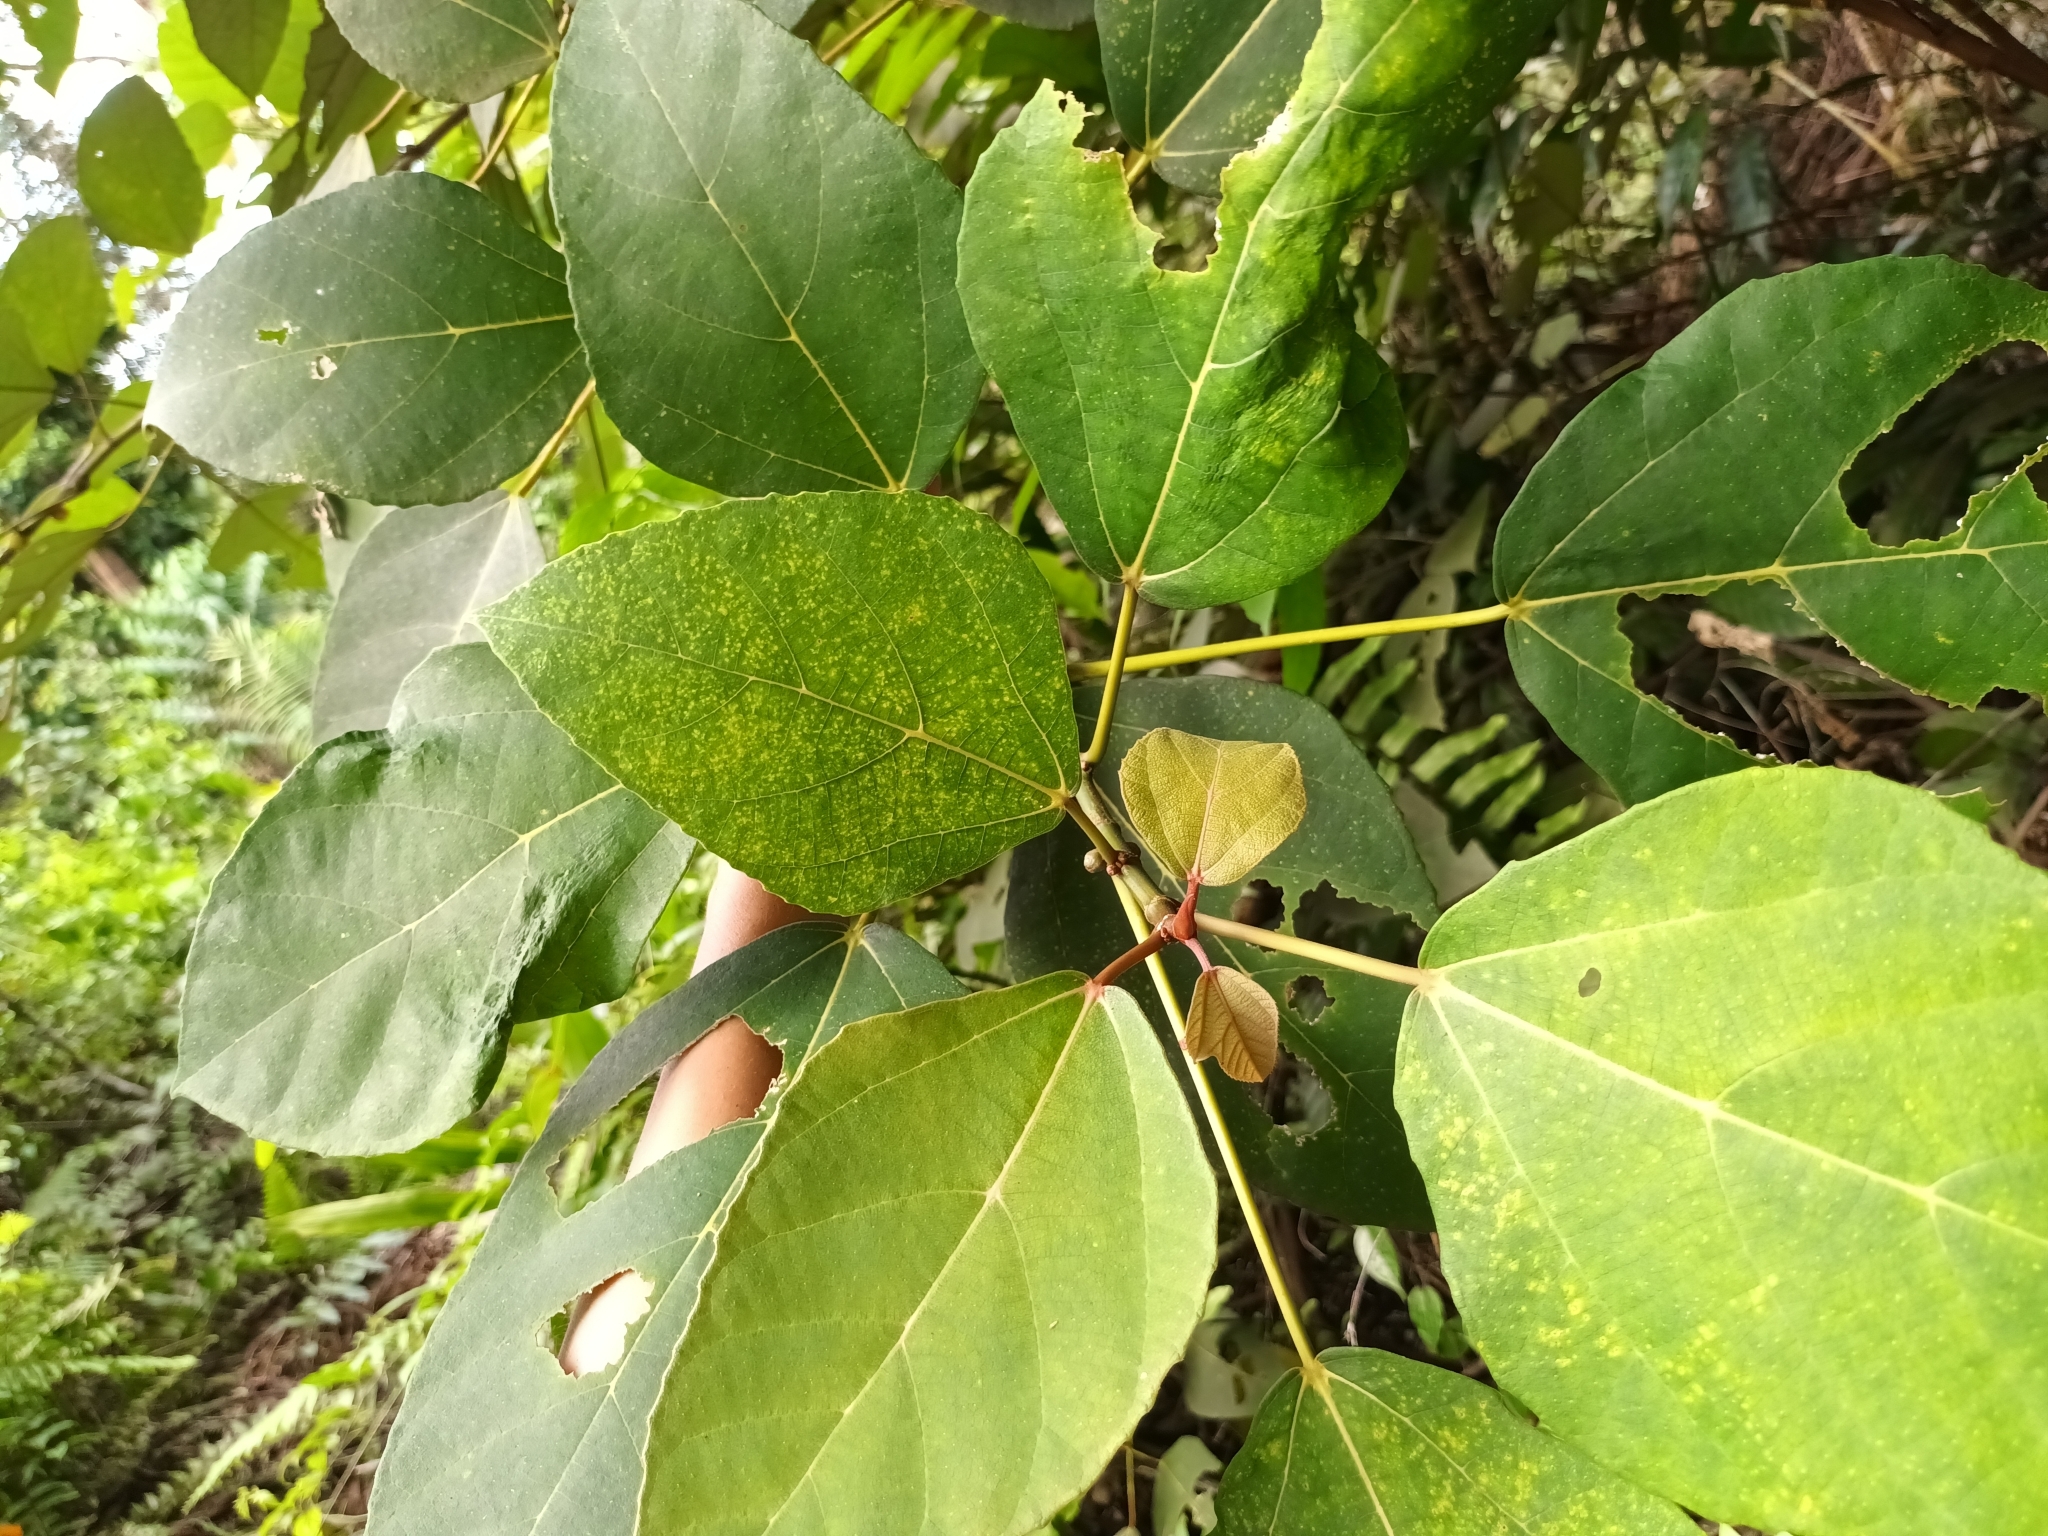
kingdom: Plantae
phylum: Tracheophyta
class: Magnoliopsida
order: Rosales
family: Moraceae
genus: Ficus
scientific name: Ficus grossularioides
